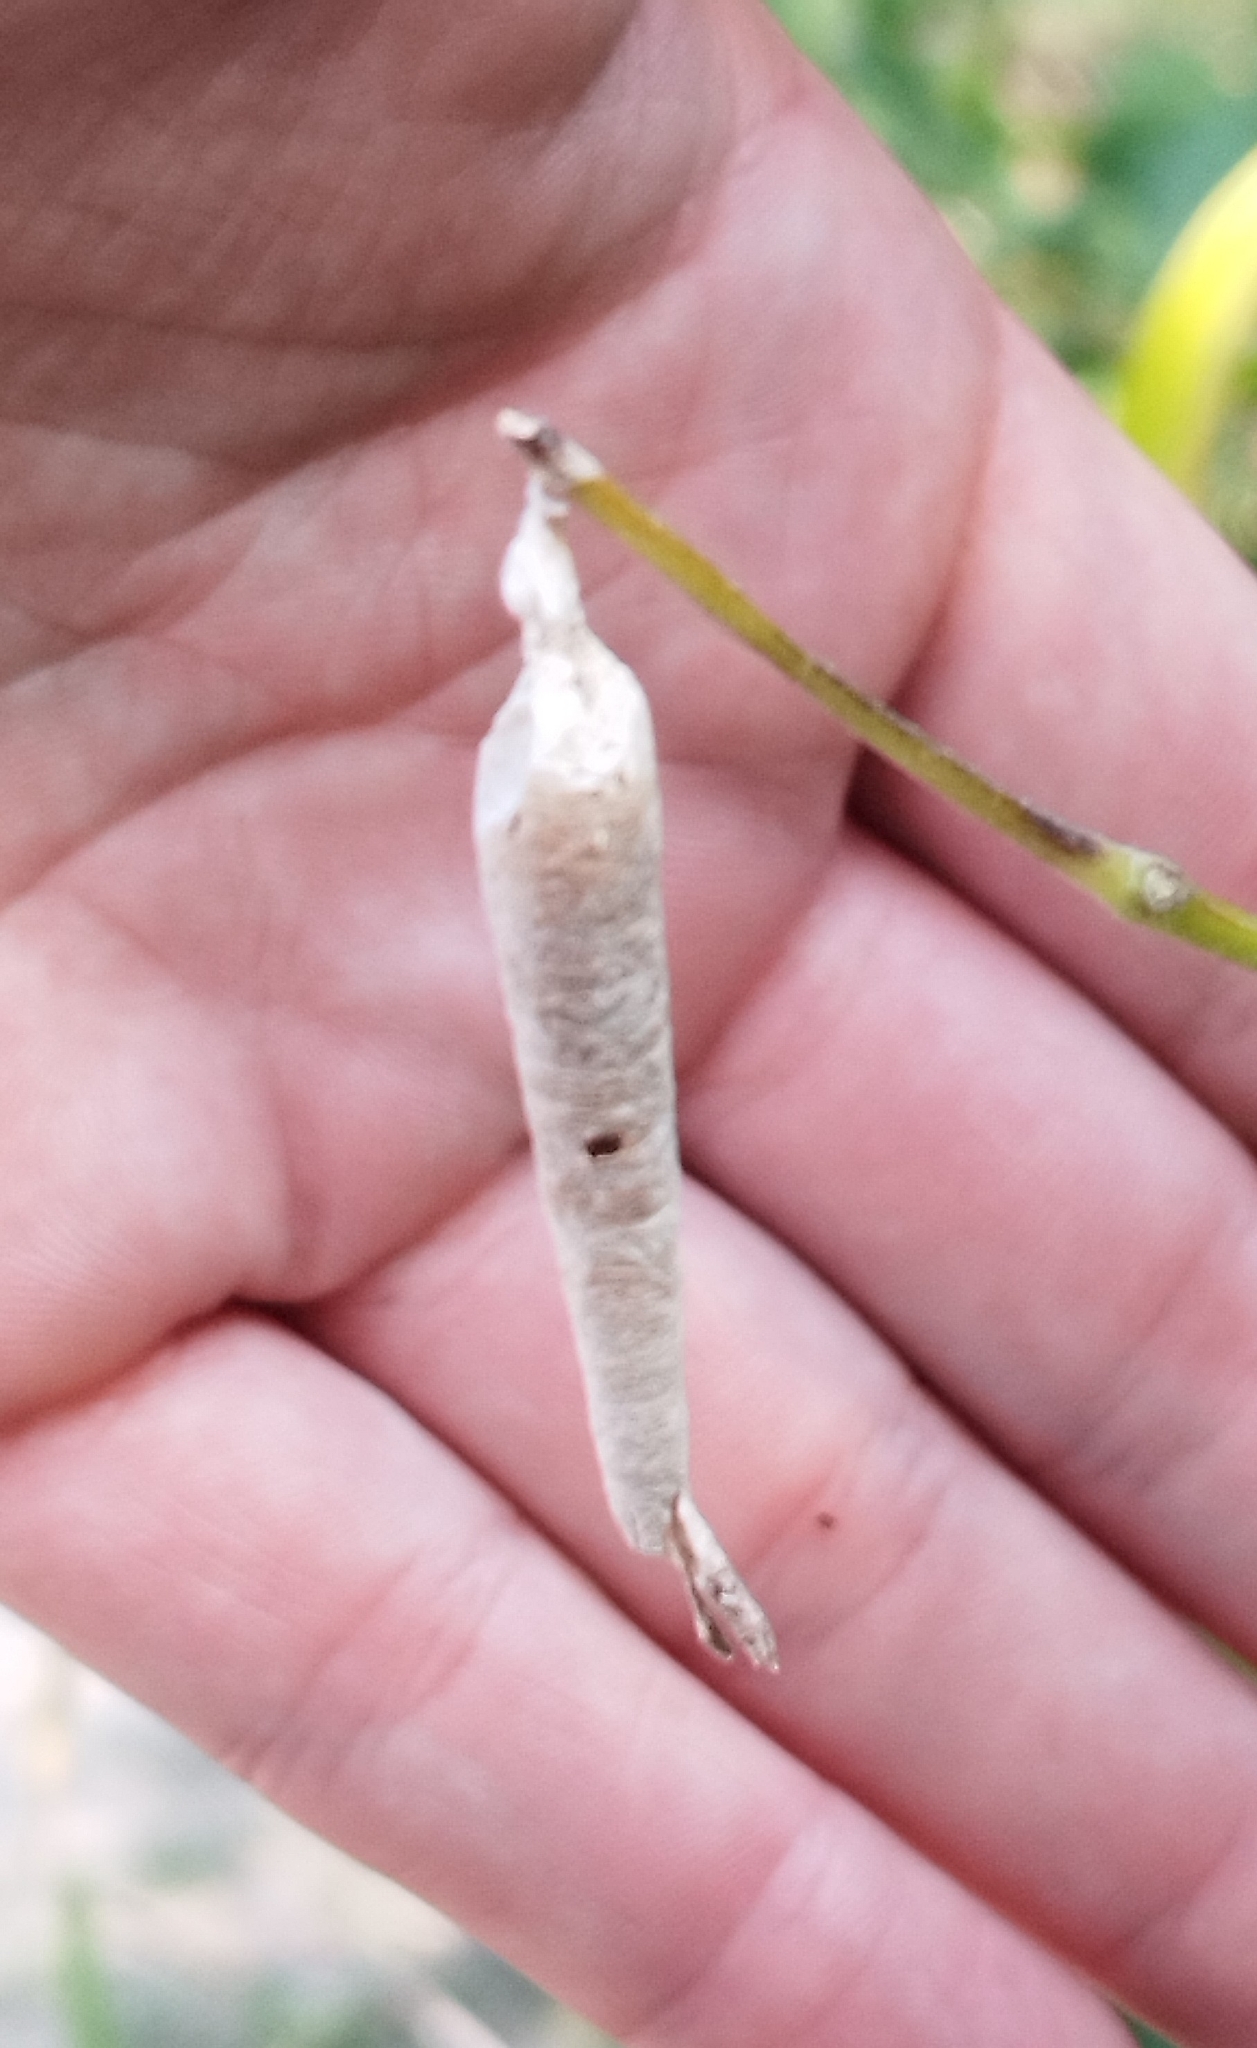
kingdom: Animalia
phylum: Arthropoda
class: Insecta
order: Lepidoptera
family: Psychidae
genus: Oiketicus
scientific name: Oiketicus geyeri
